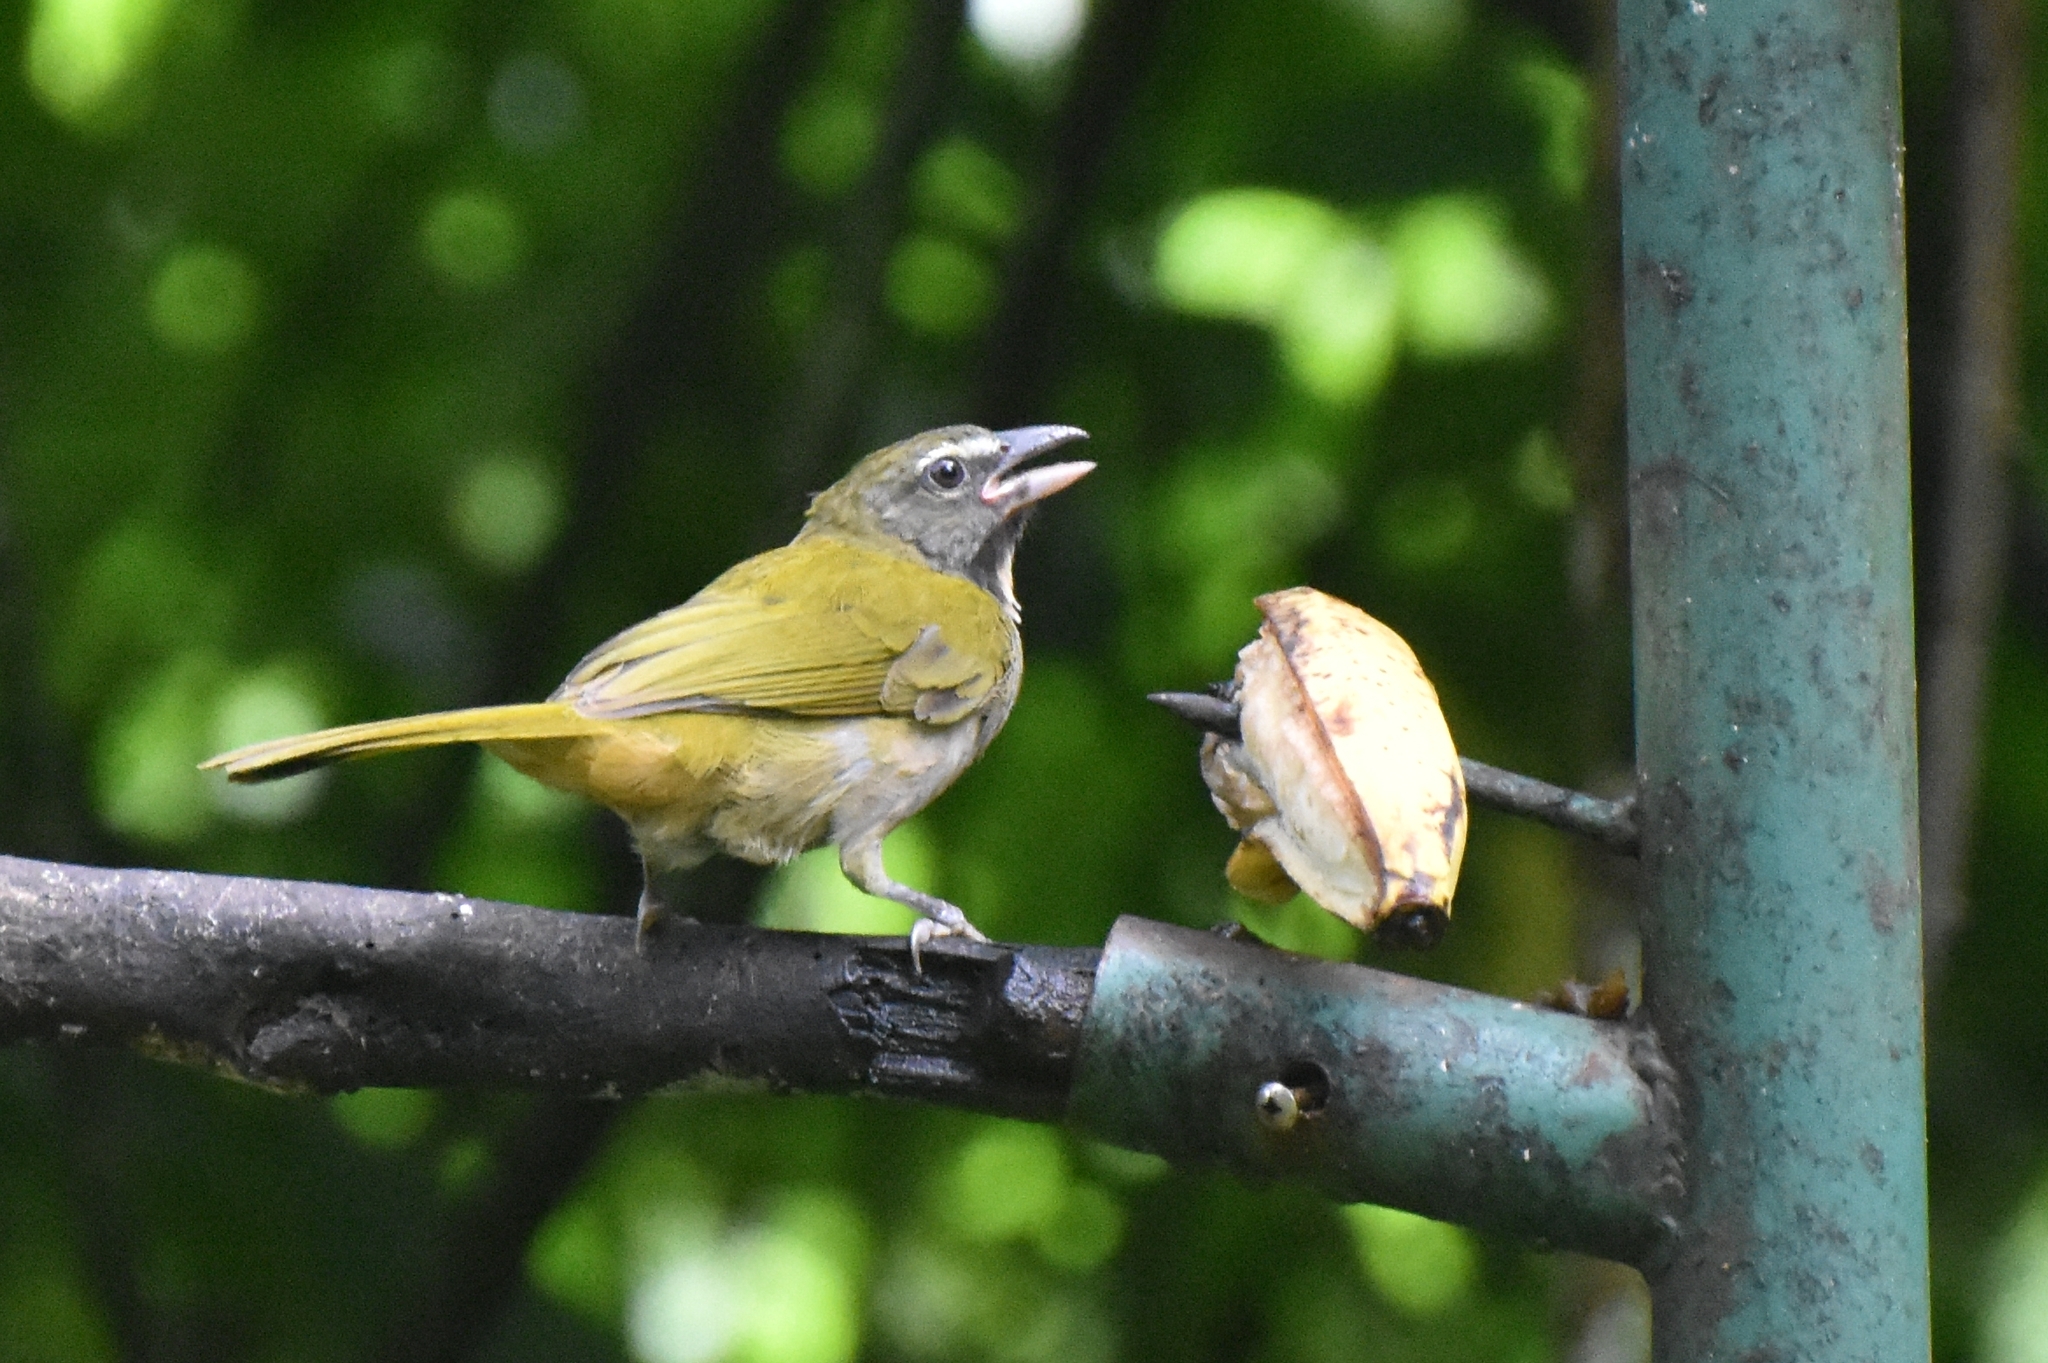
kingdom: Animalia
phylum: Chordata
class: Aves
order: Passeriformes
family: Thraupidae
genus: Saltator
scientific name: Saltator maximus
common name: Buff-throated saltator
